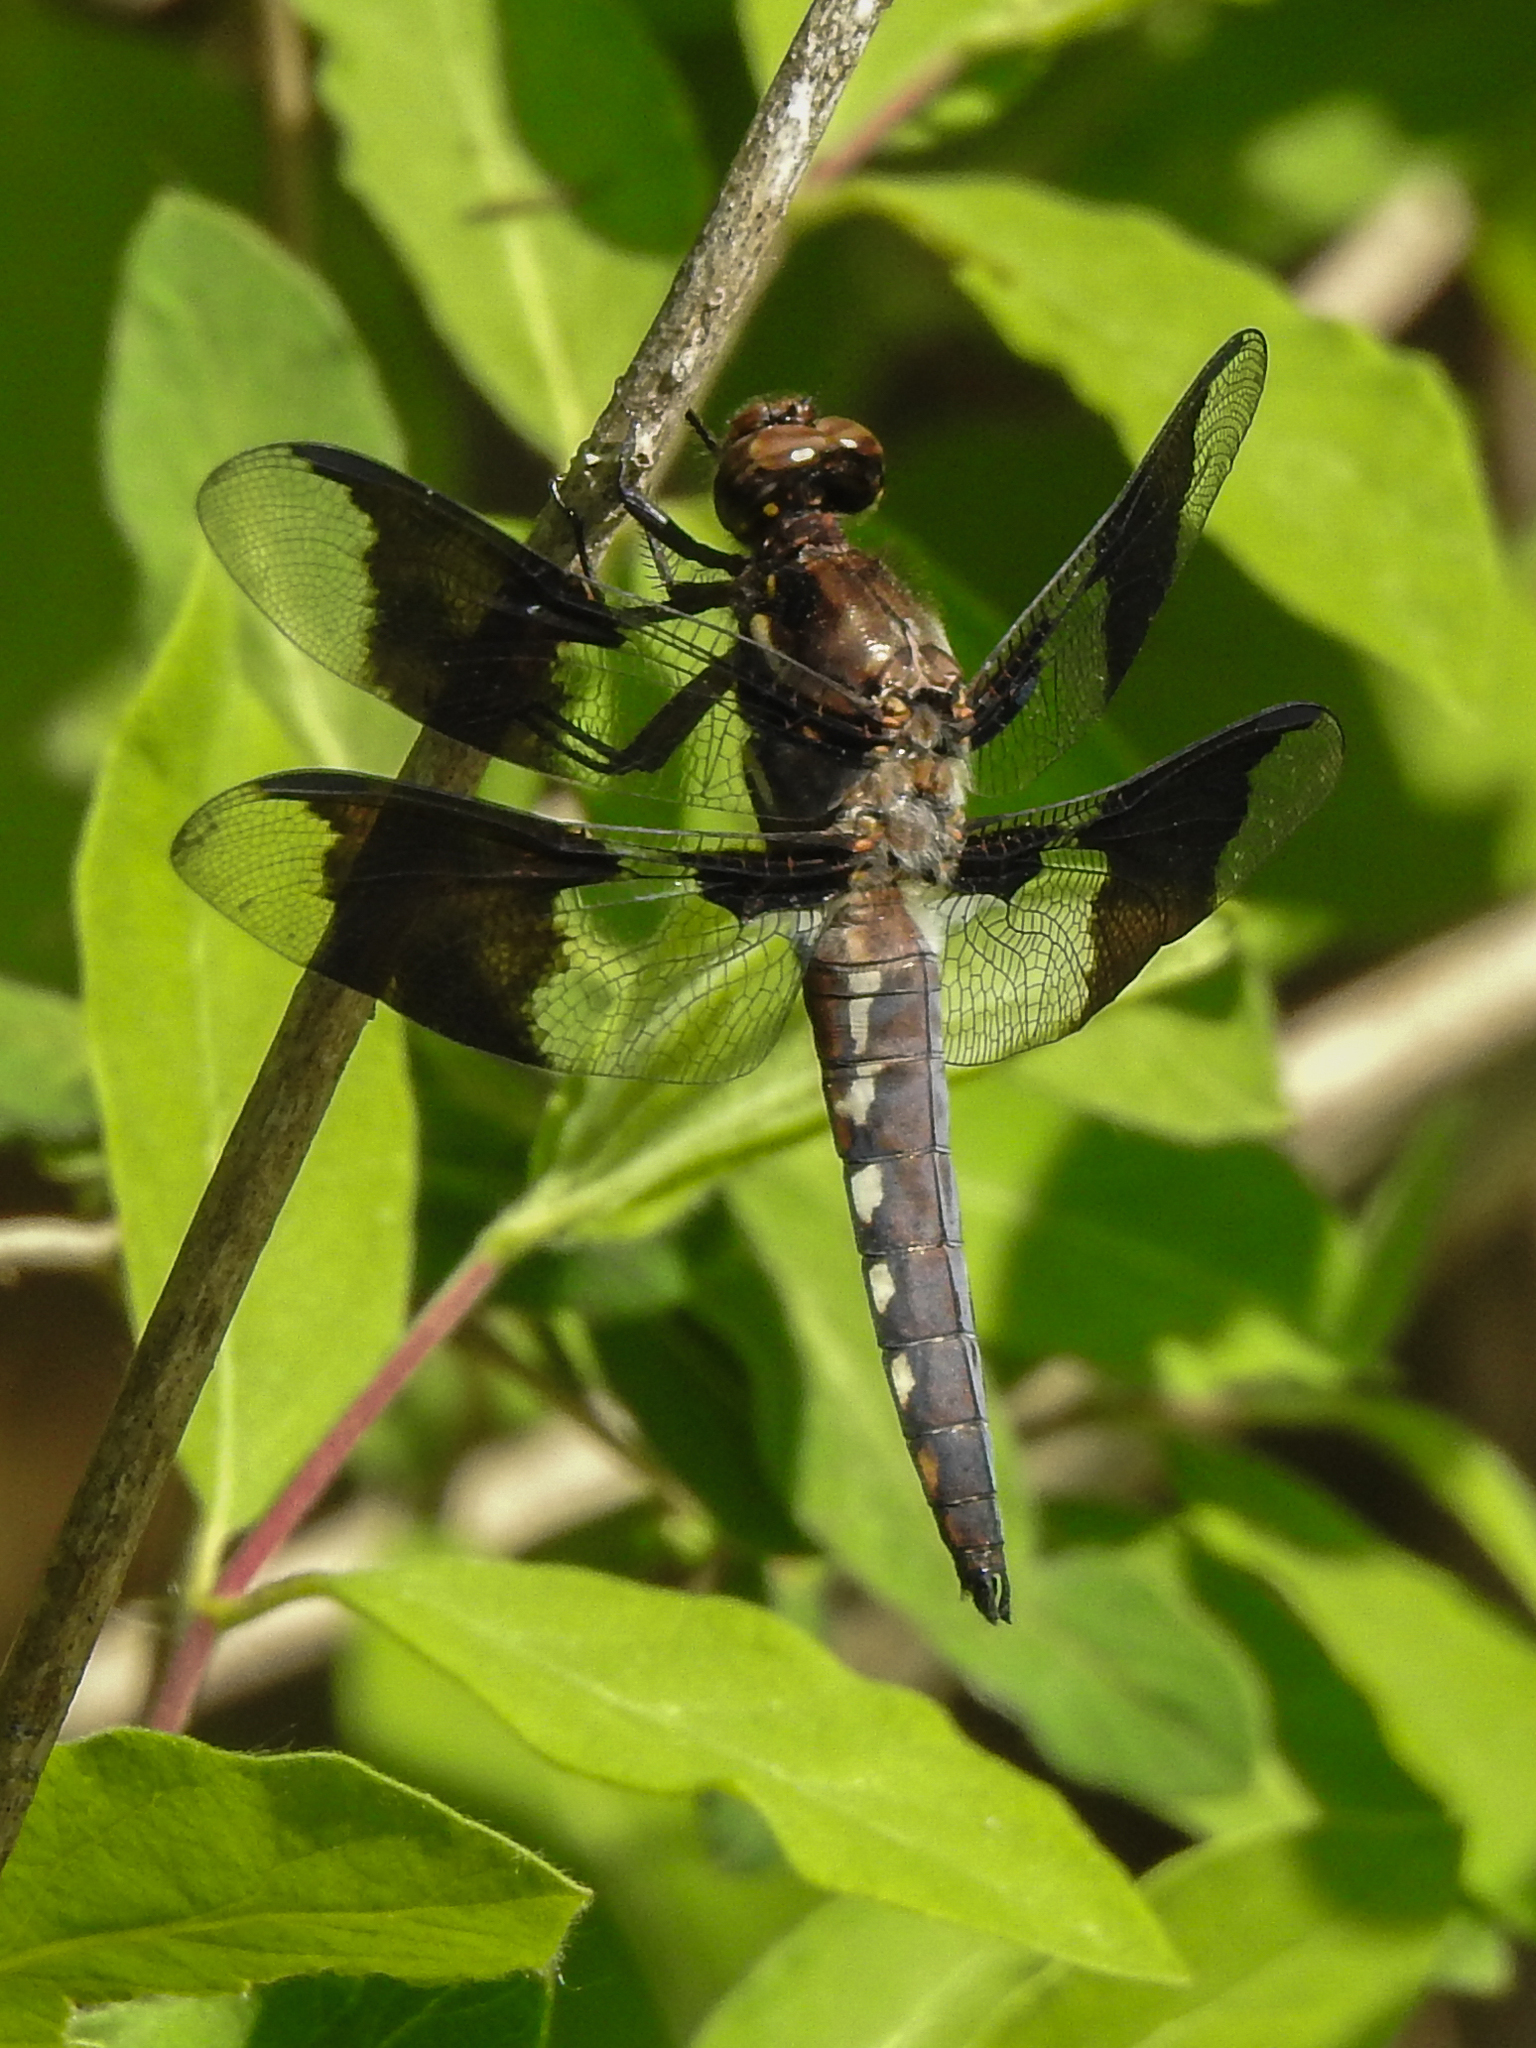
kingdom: Animalia
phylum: Arthropoda
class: Insecta
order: Odonata
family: Libellulidae
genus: Plathemis
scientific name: Plathemis lydia
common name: Common whitetail
